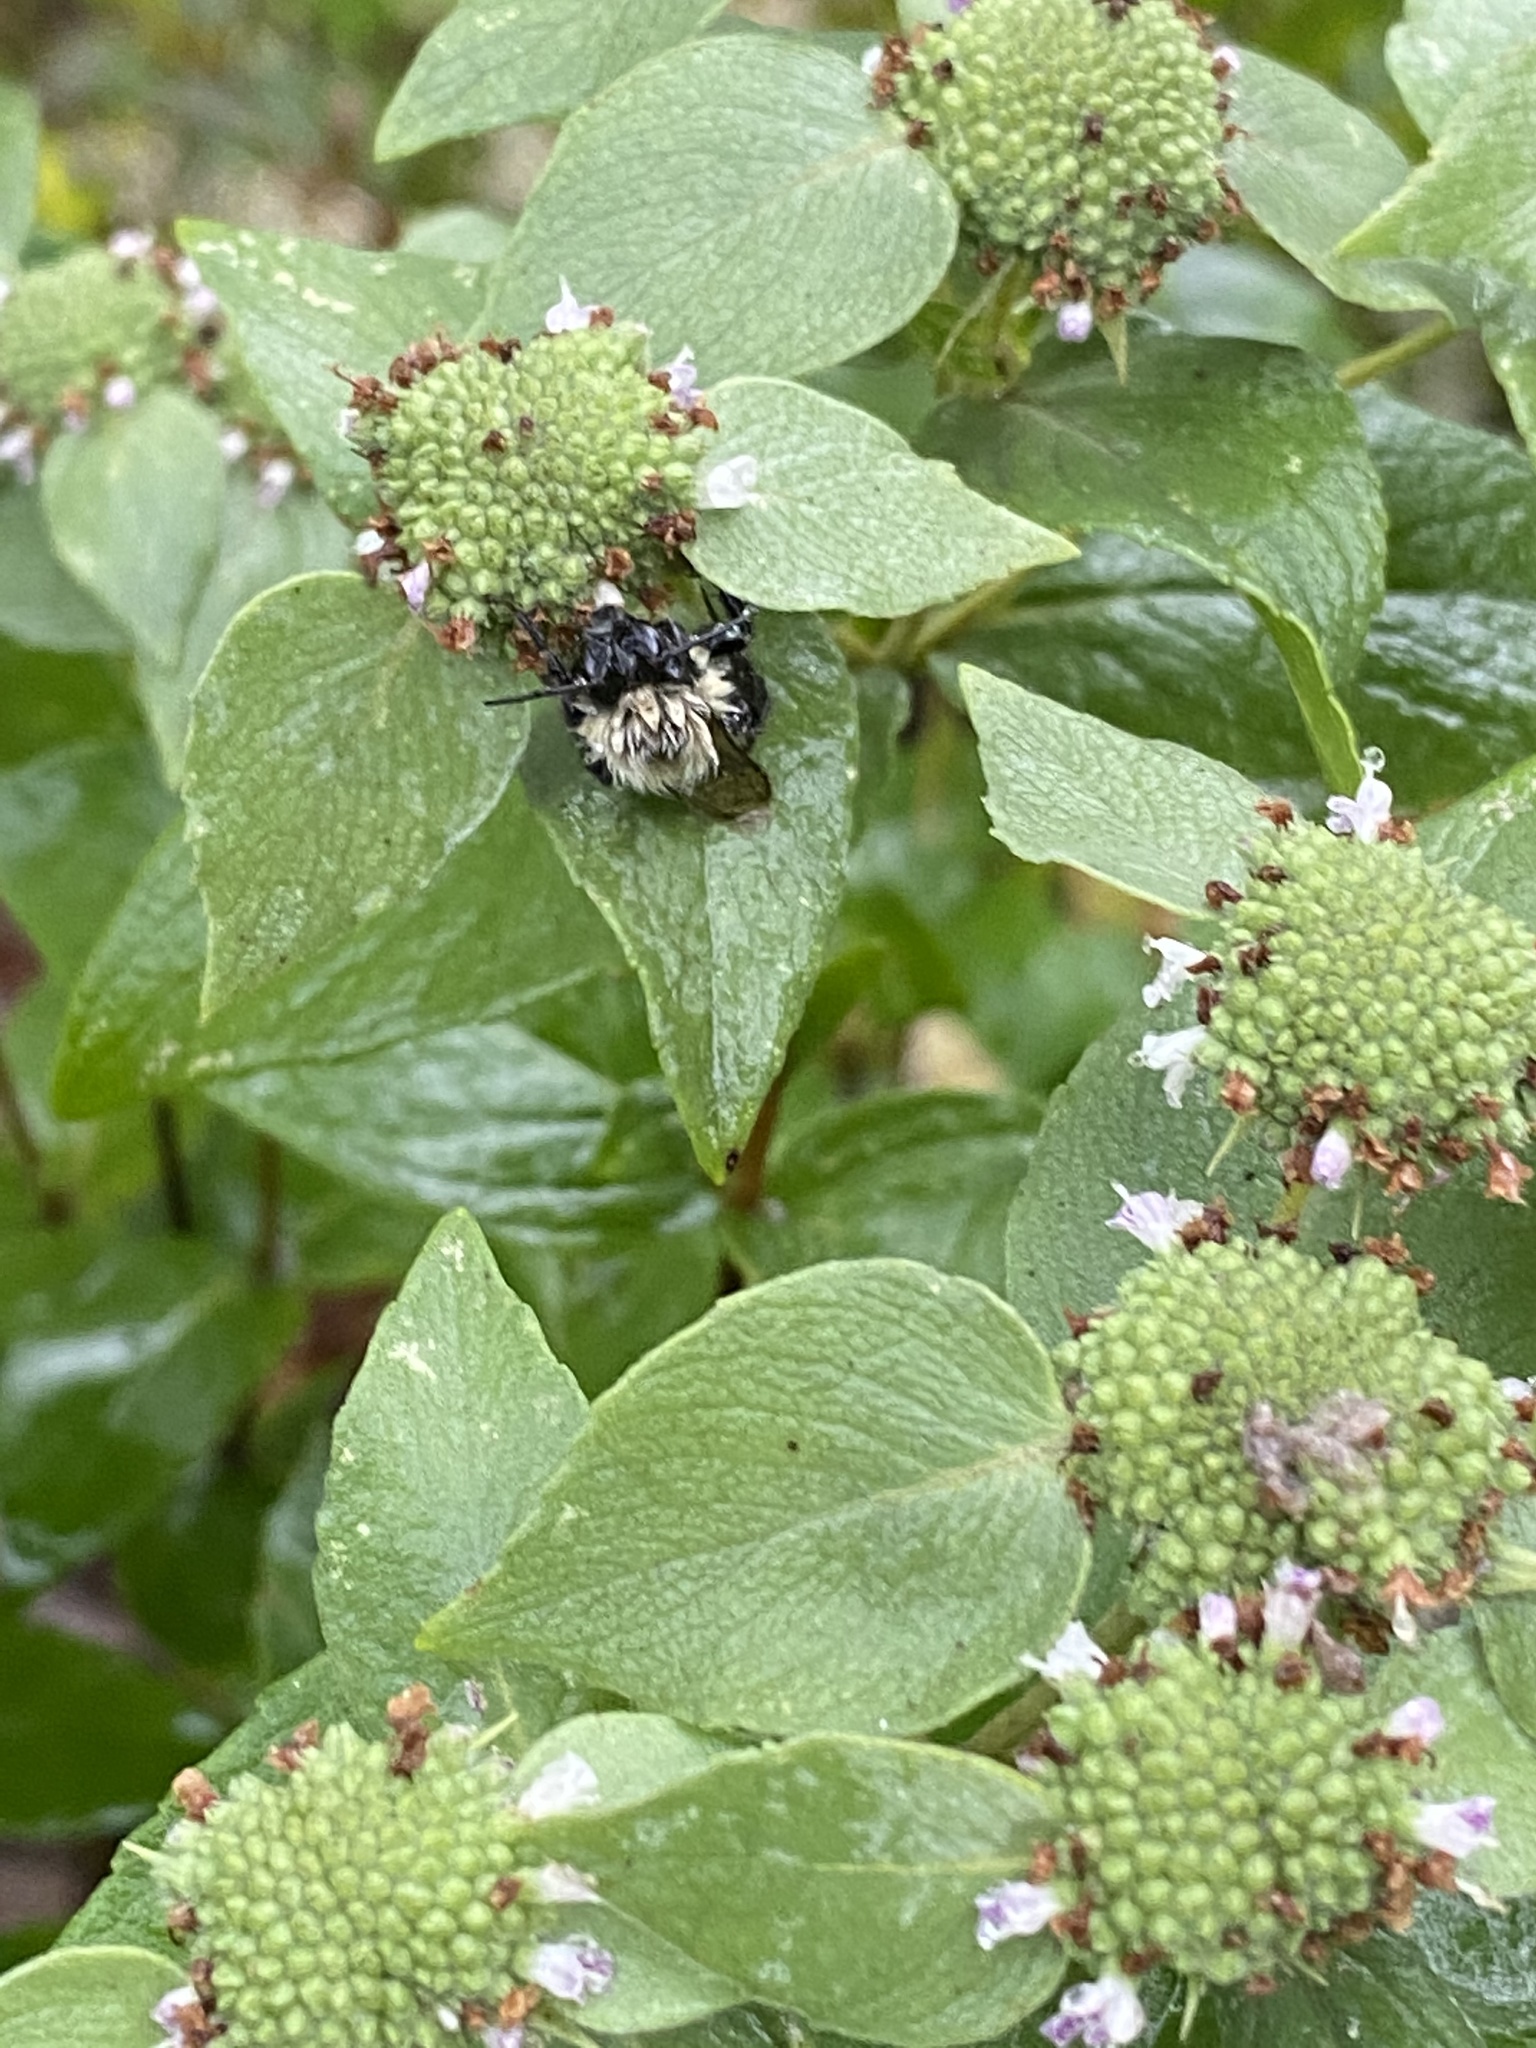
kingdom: Animalia
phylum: Arthropoda
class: Insecta
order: Hymenoptera
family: Apidae
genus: Bombus
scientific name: Bombus impatiens
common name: Common eastern bumble bee
